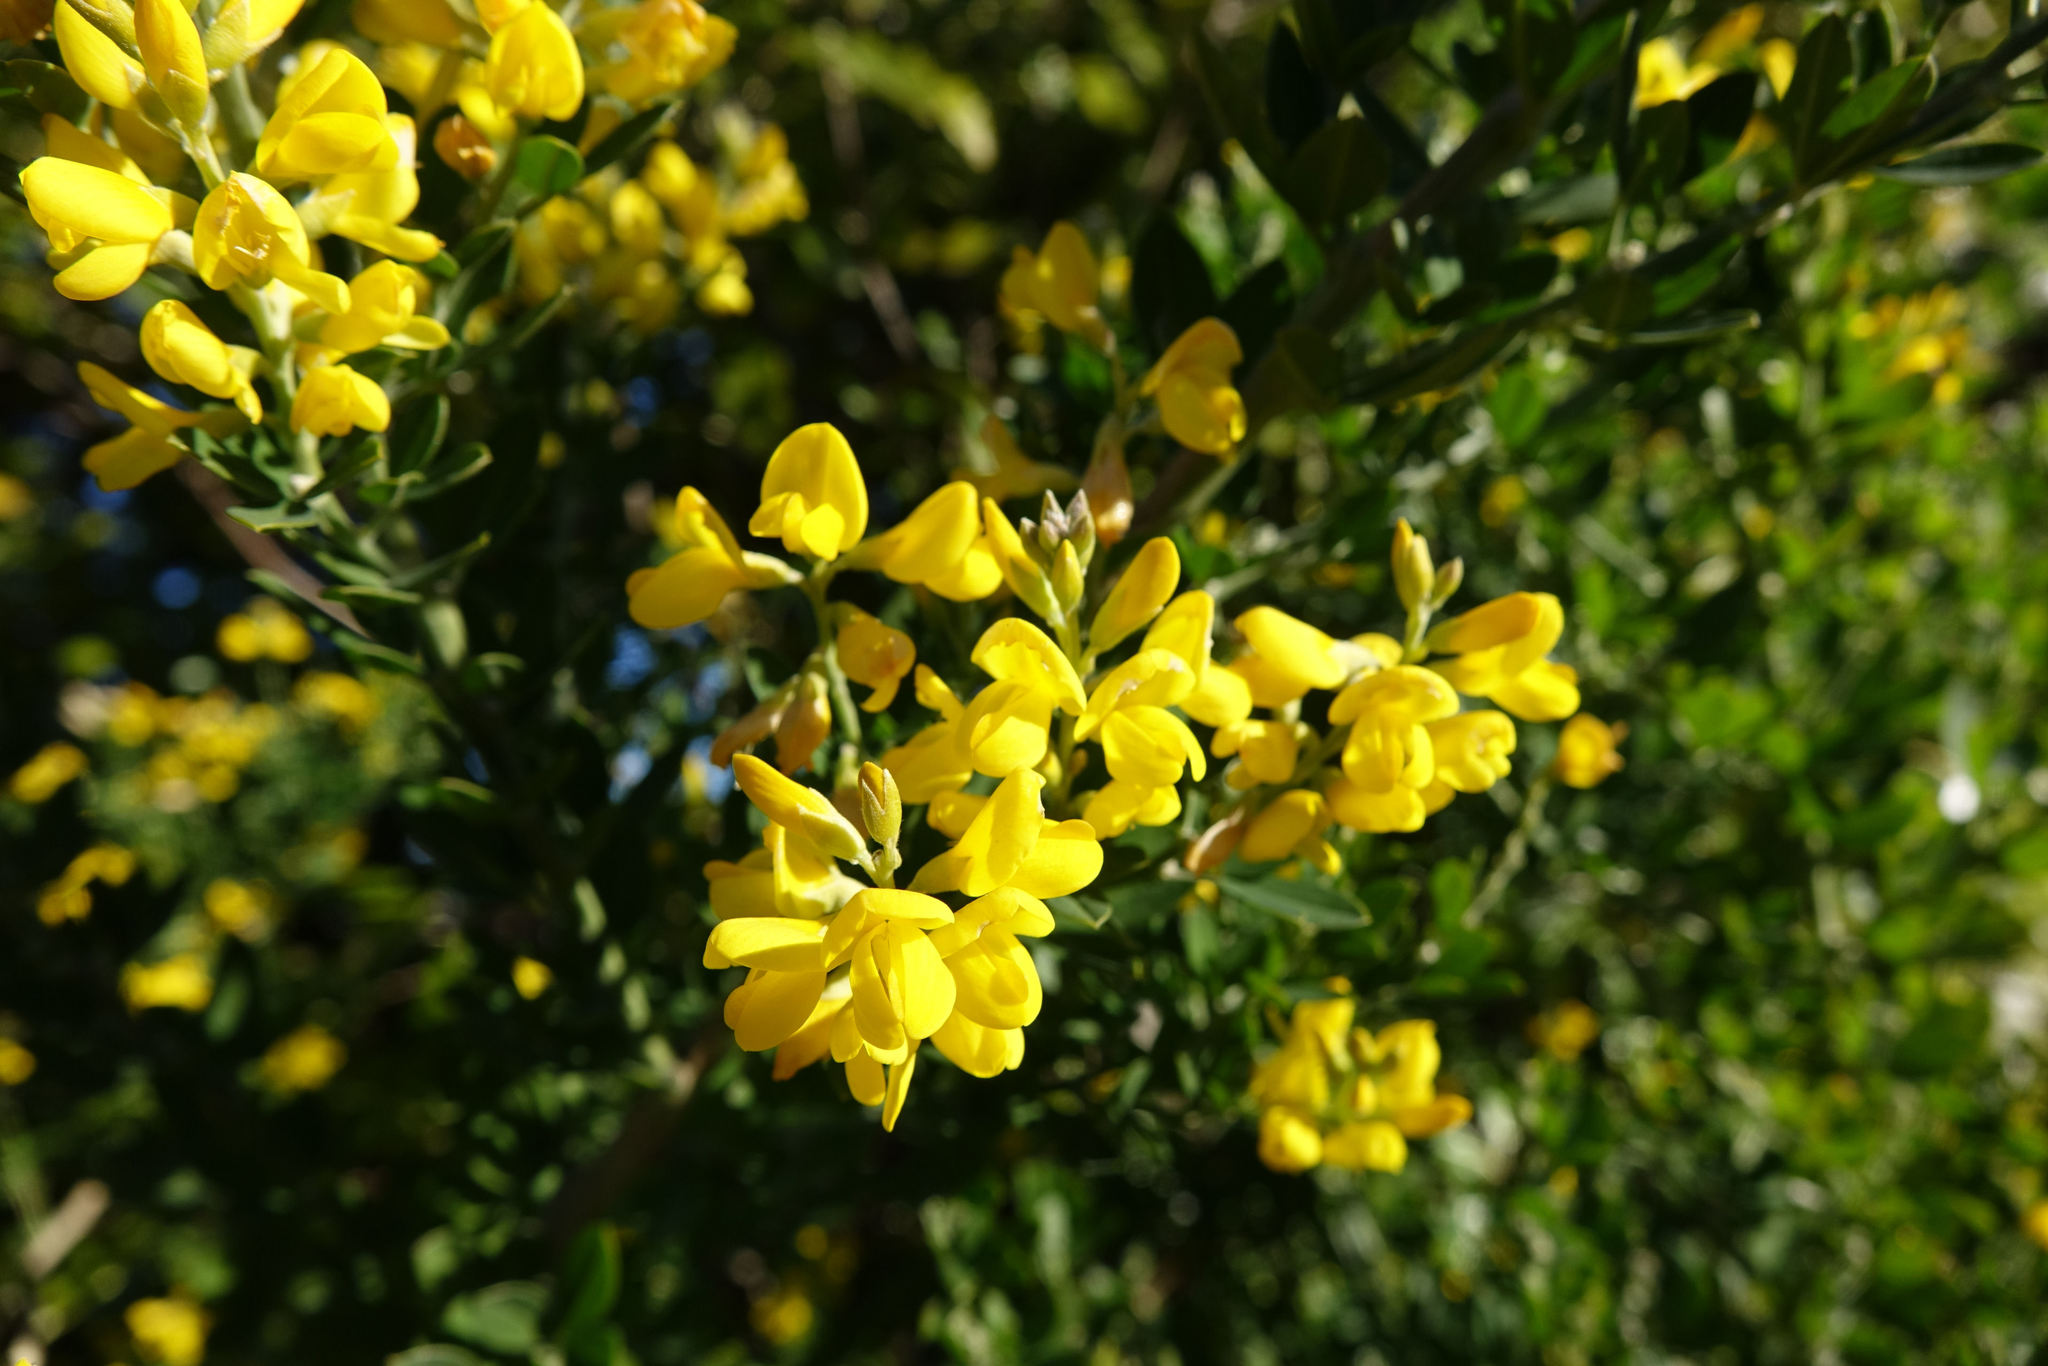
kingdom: Plantae
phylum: Tracheophyta
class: Magnoliopsida
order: Fabales
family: Fabaceae
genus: Genista
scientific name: Genista monspessulana
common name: Montpellier broom
